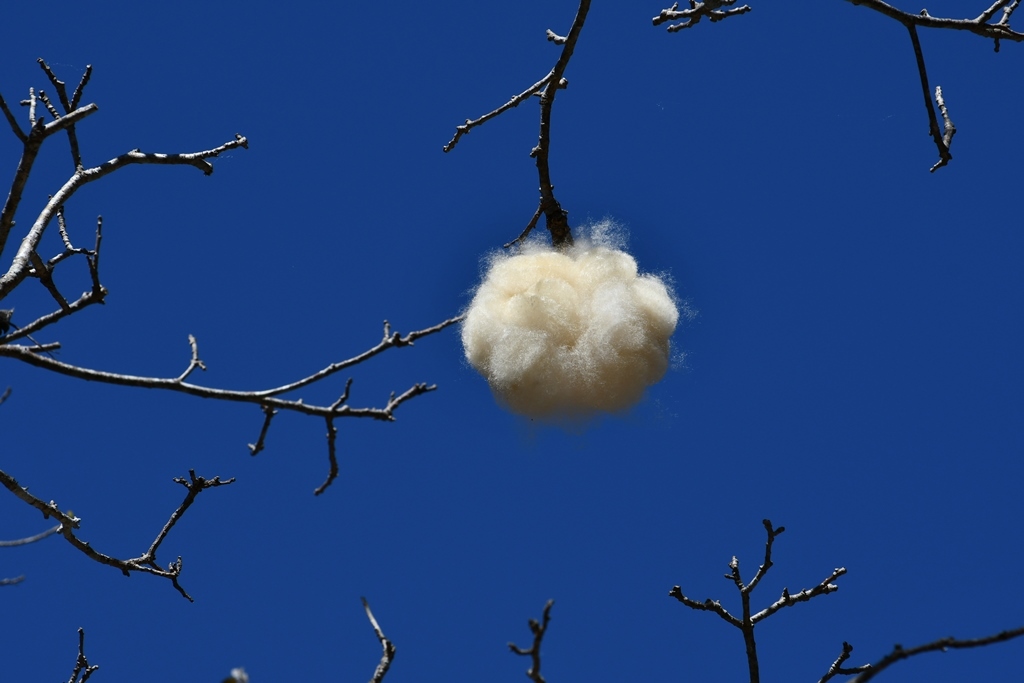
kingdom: Plantae
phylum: Tracheophyta
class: Magnoliopsida
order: Malvales
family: Malvaceae
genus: Ceiba
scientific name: Ceiba aesculifolia
